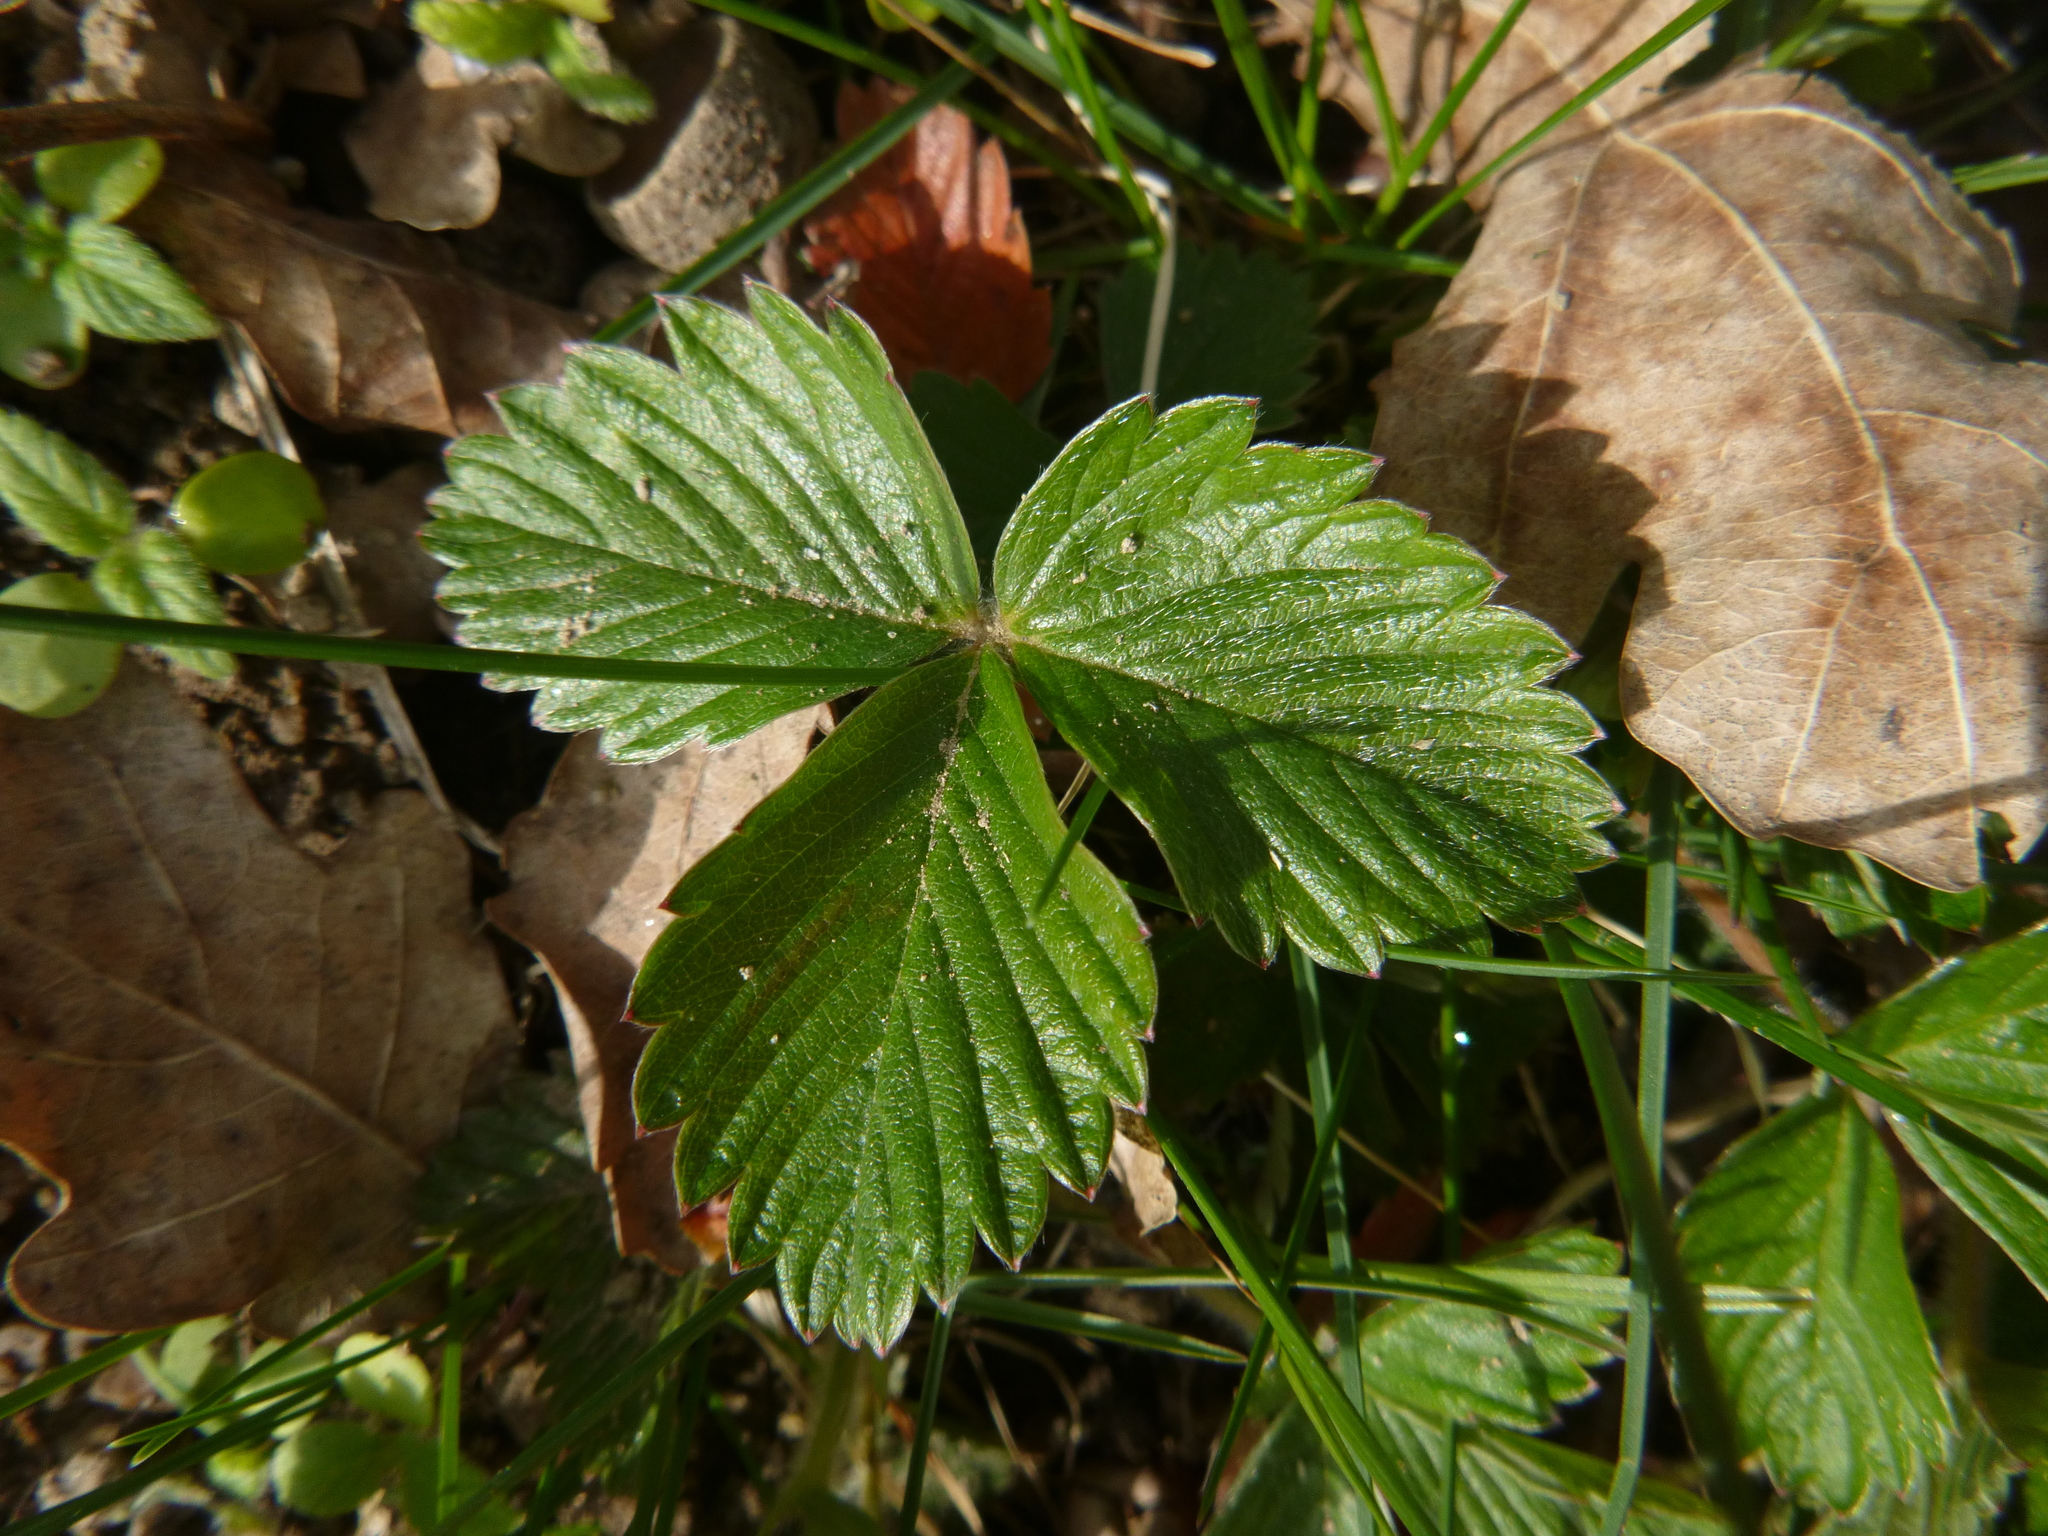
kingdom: Plantae
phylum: Tracheophyta
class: Magnoliopsida
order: Rosales
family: Rosaceae
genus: Fragaria
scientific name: Fragaria vesca
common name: Wild strawberry
